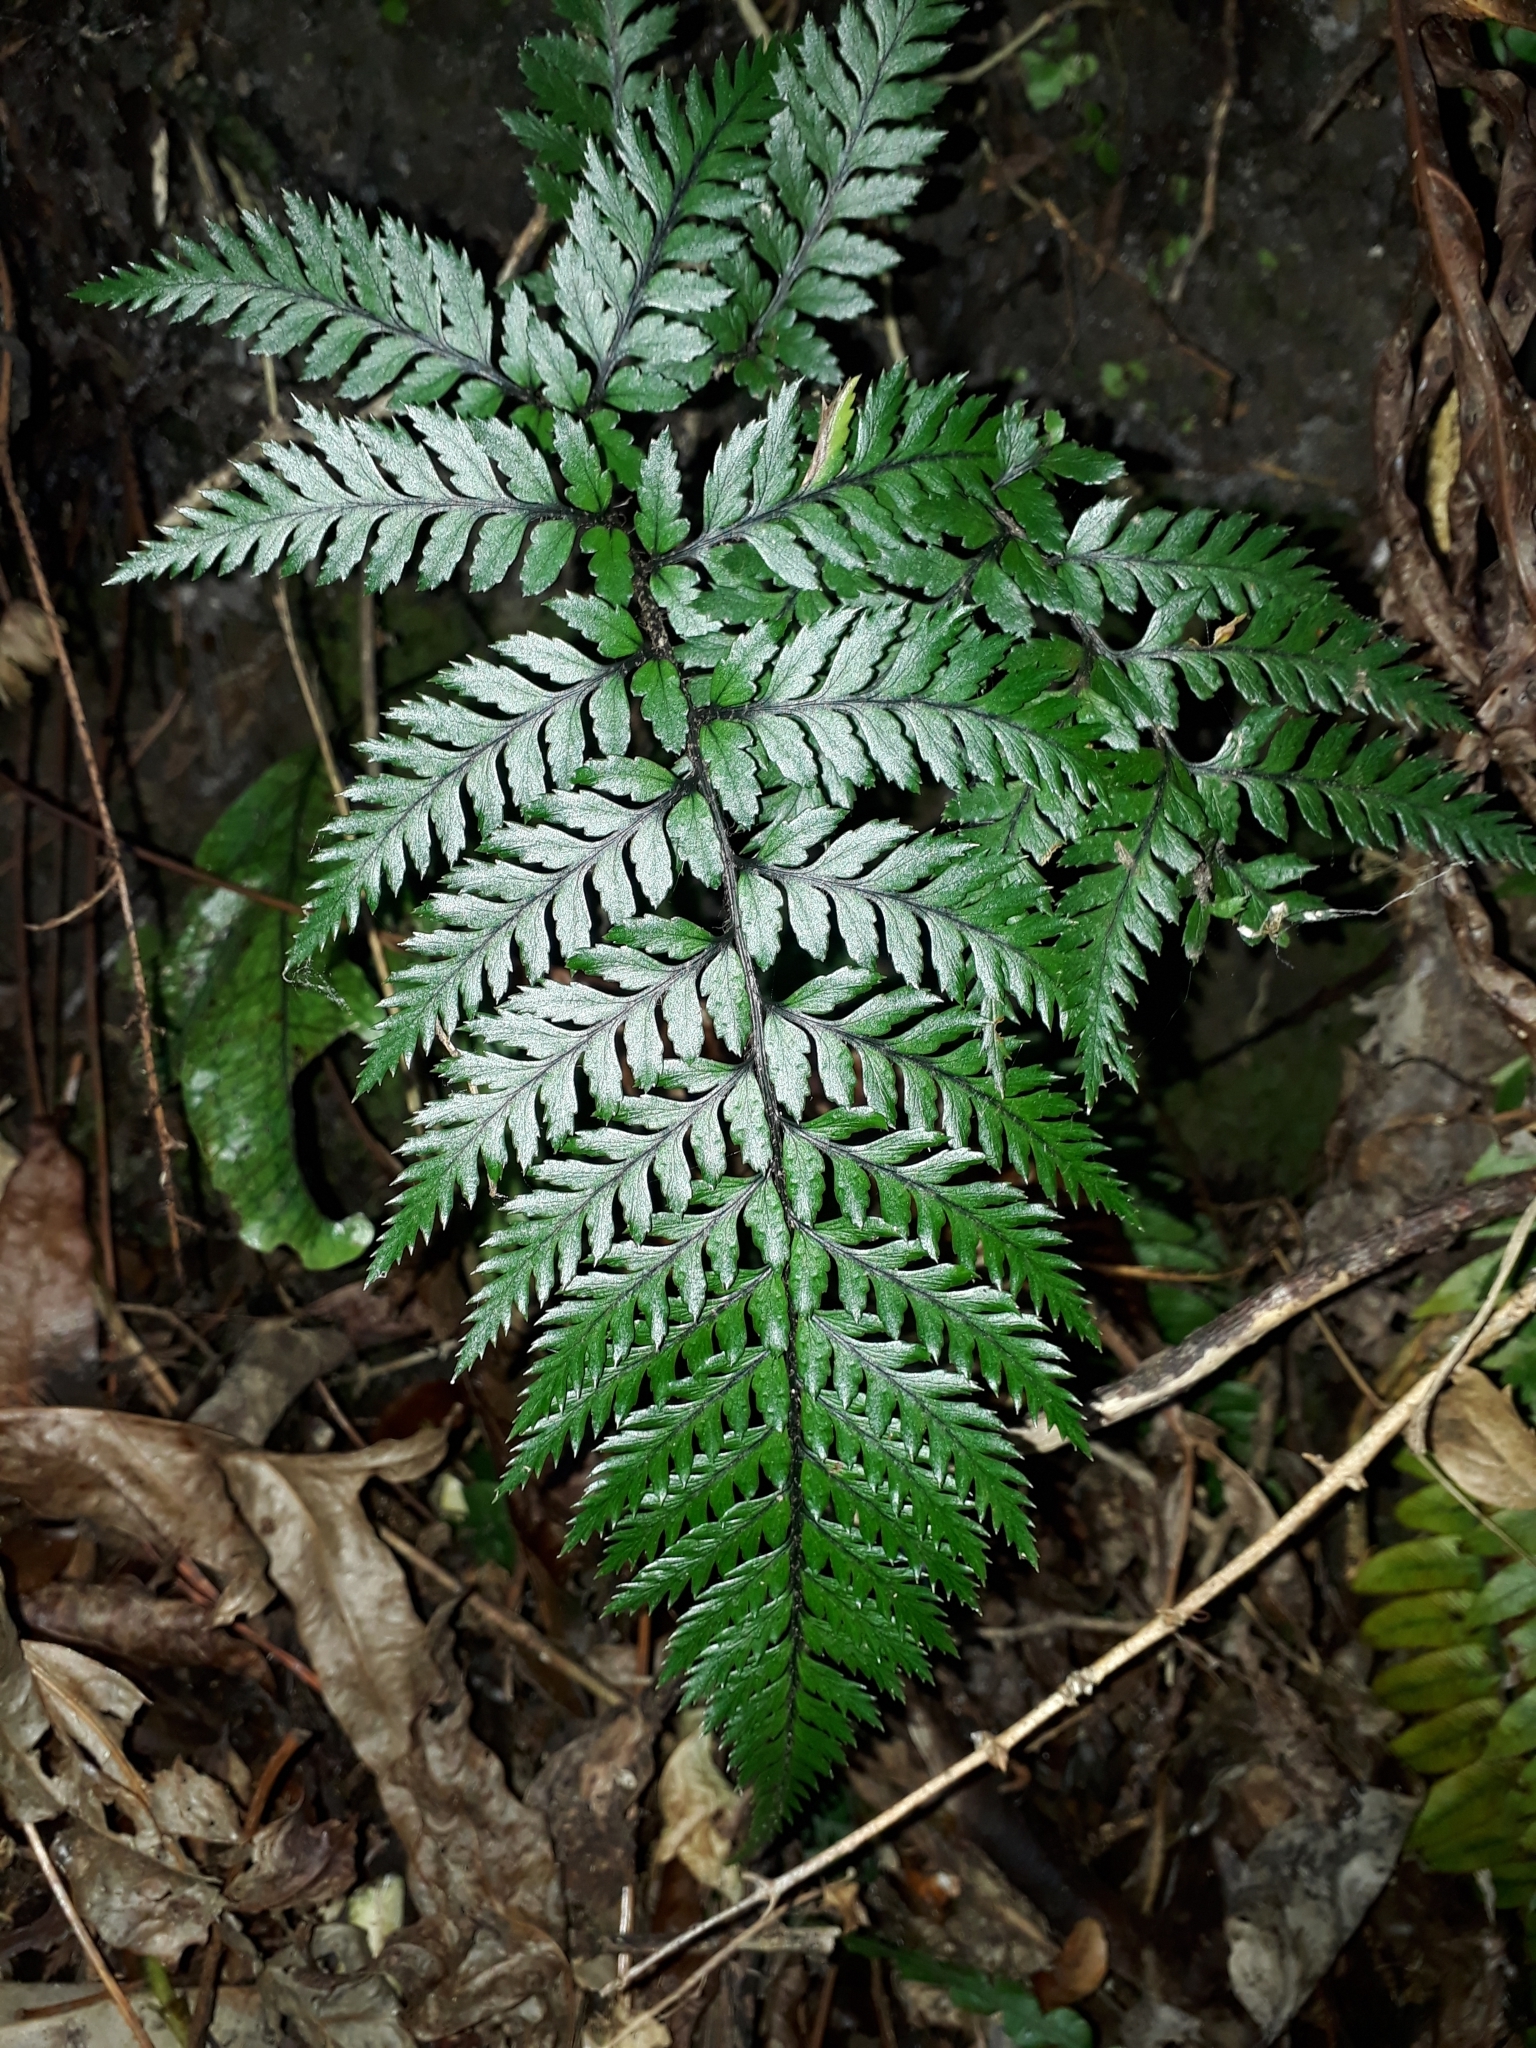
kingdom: Plantae
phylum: Tracheophyta
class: Polypodiopsida
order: Polypodiales
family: Dryopteridaceae
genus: Polystichum
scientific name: Polystichum neozelandicum
